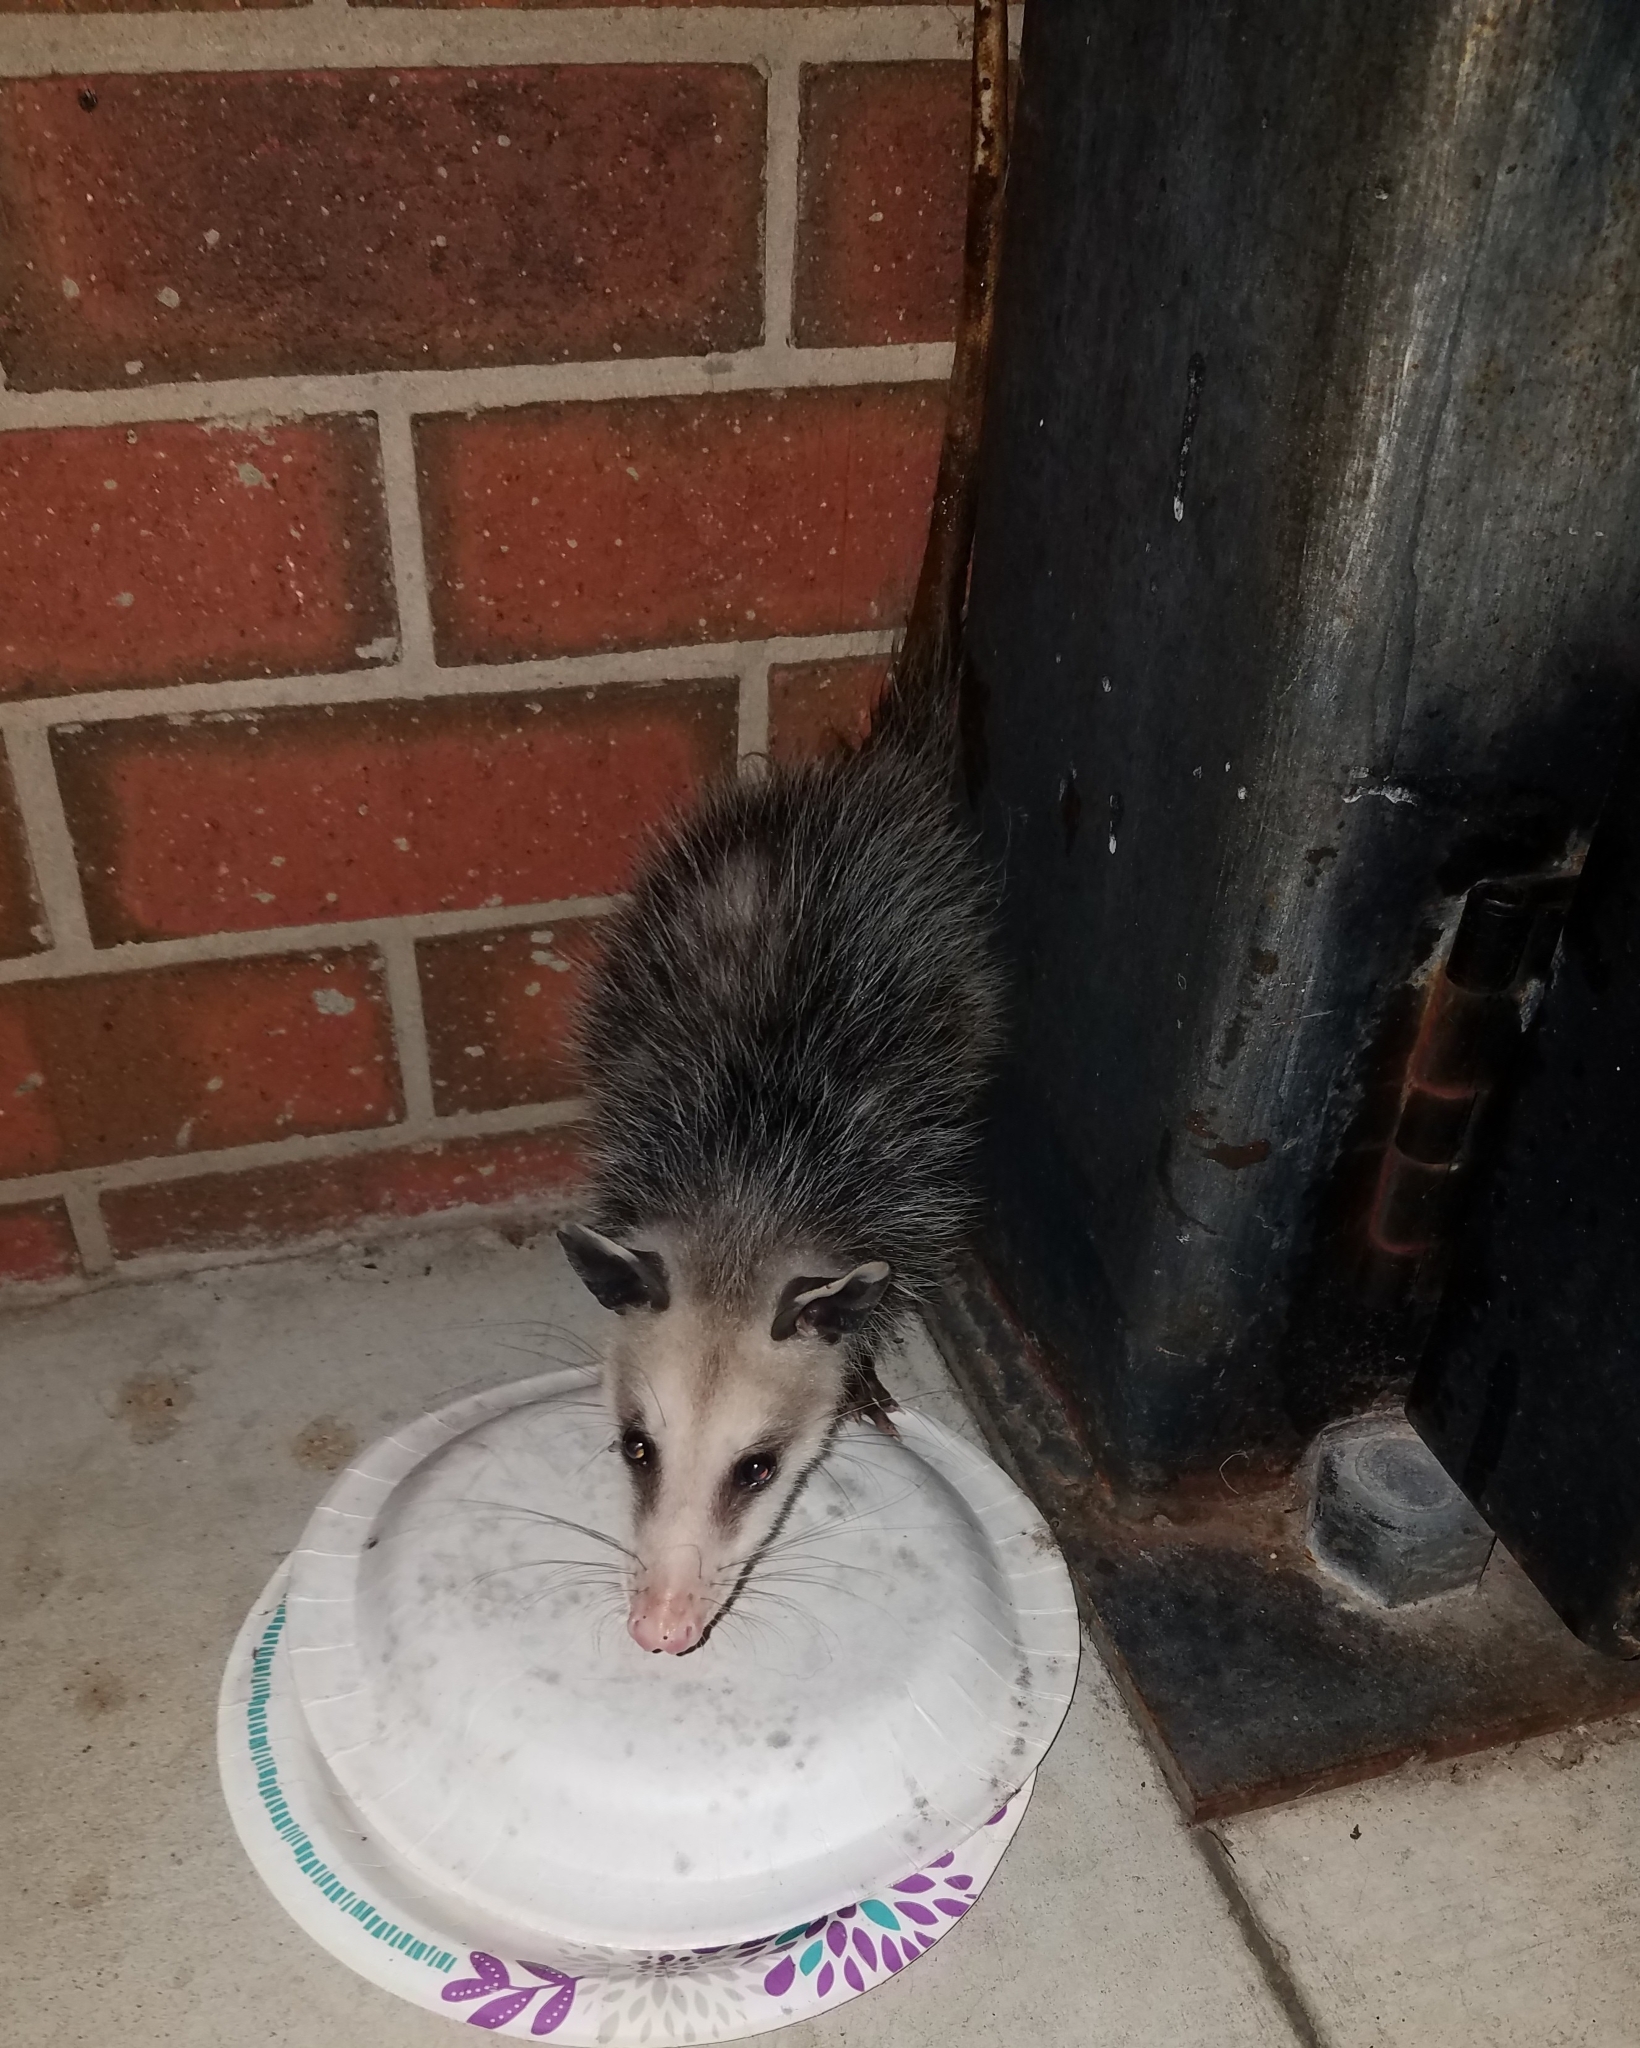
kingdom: Animalia
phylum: Chordata
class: Mammalia
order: Didelphimorphia
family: Didelphidae
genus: Didelphis
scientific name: Didelphis virginiana
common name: Virginia opossum
